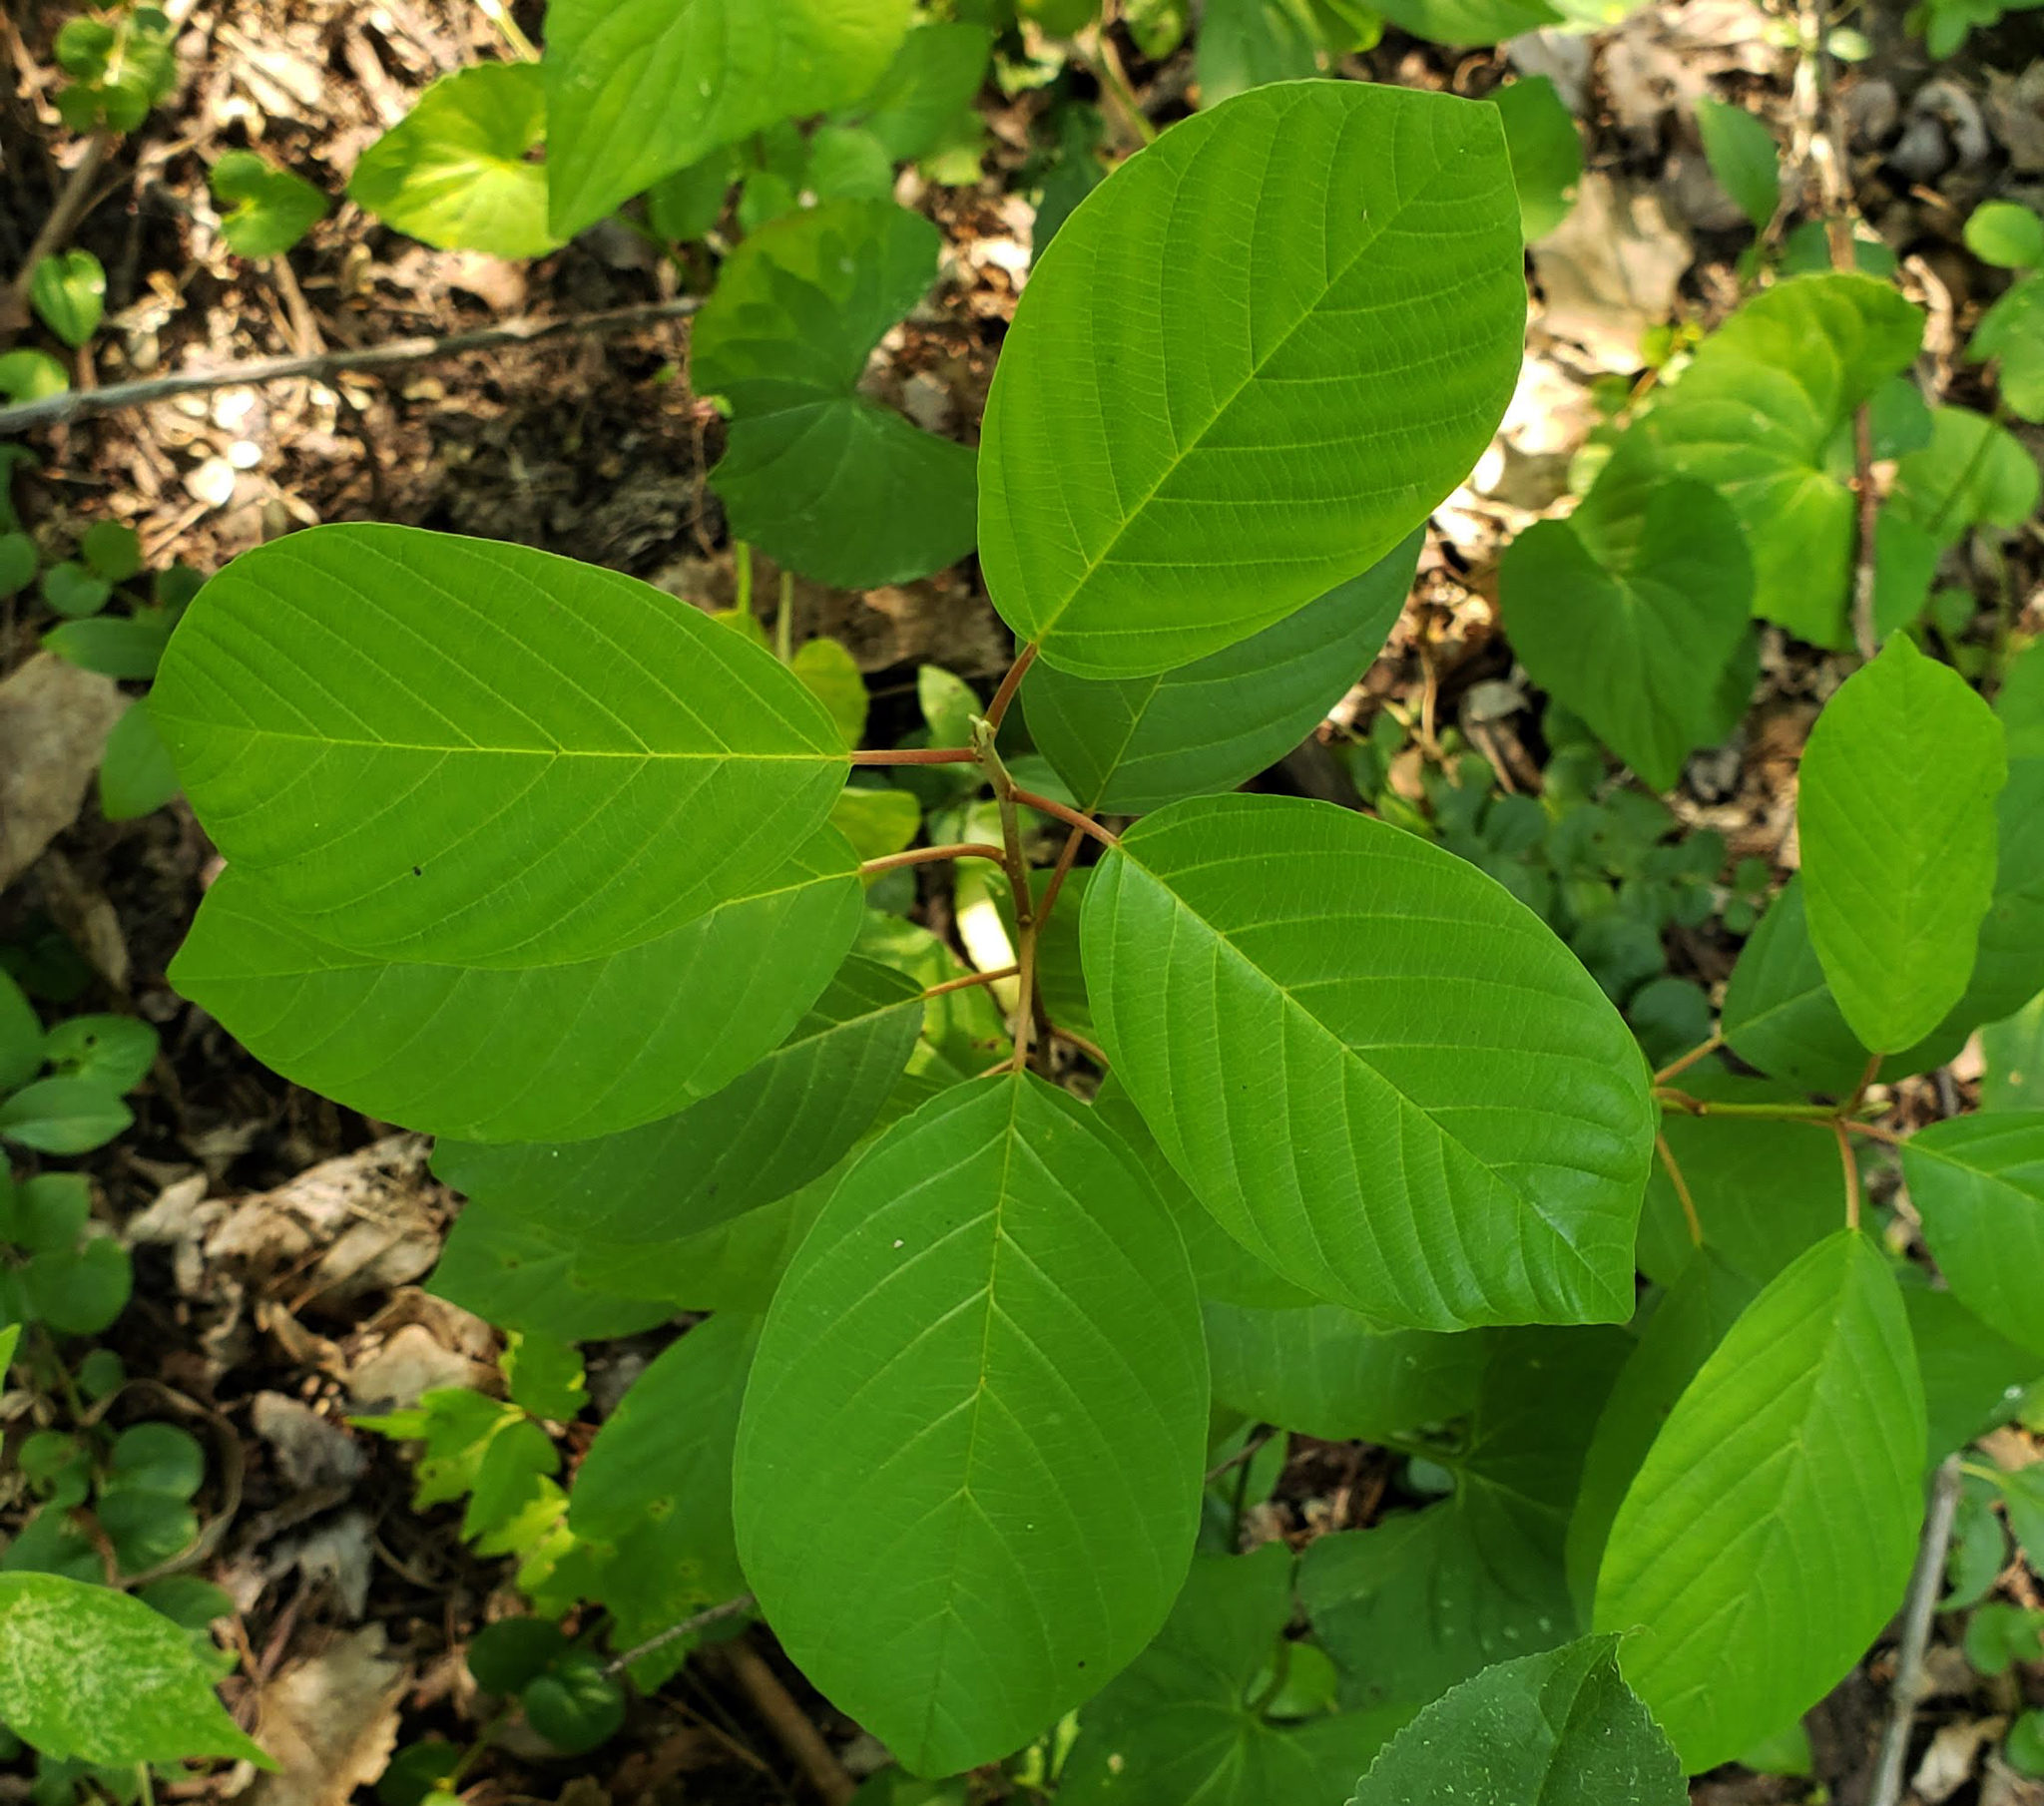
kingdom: Plantae
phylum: Tracheophyta
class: Magnoliopsida
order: Rosales
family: Rhamnaceae
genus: Frangula
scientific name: Frangula alnus
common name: Alder buckthorn
